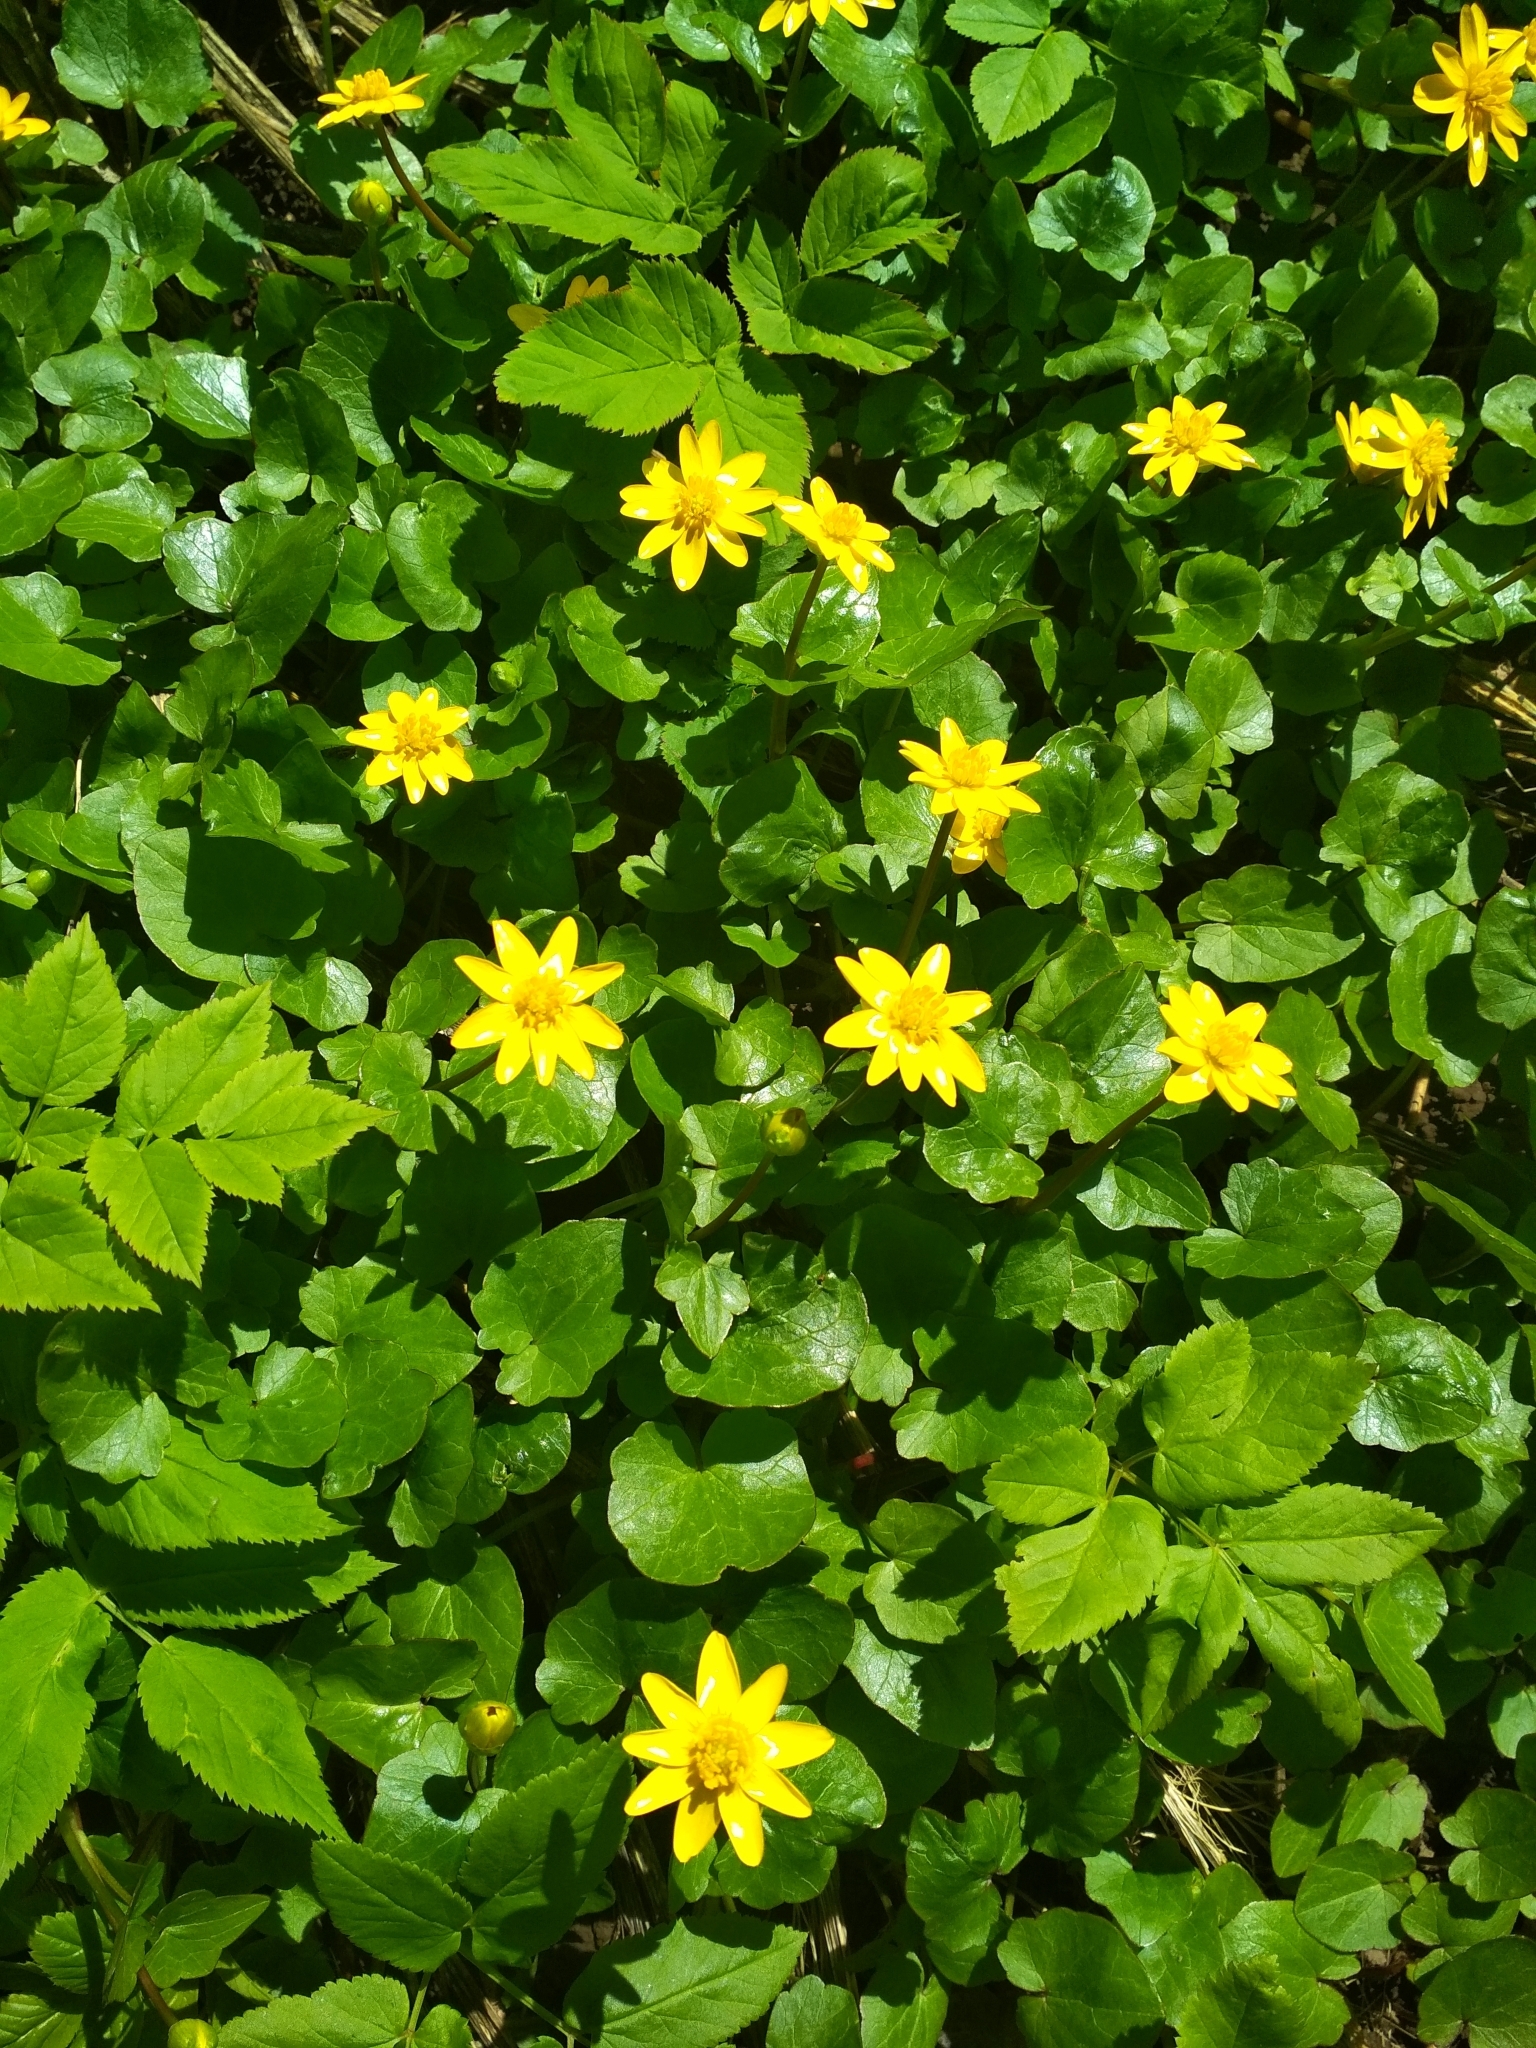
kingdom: Plantae
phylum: Tracheophyta
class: Magnoliopsida
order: Ranunculales
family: Ranunculaceae
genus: Ficaria
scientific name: Ficaria verna
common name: Lesser celandine
